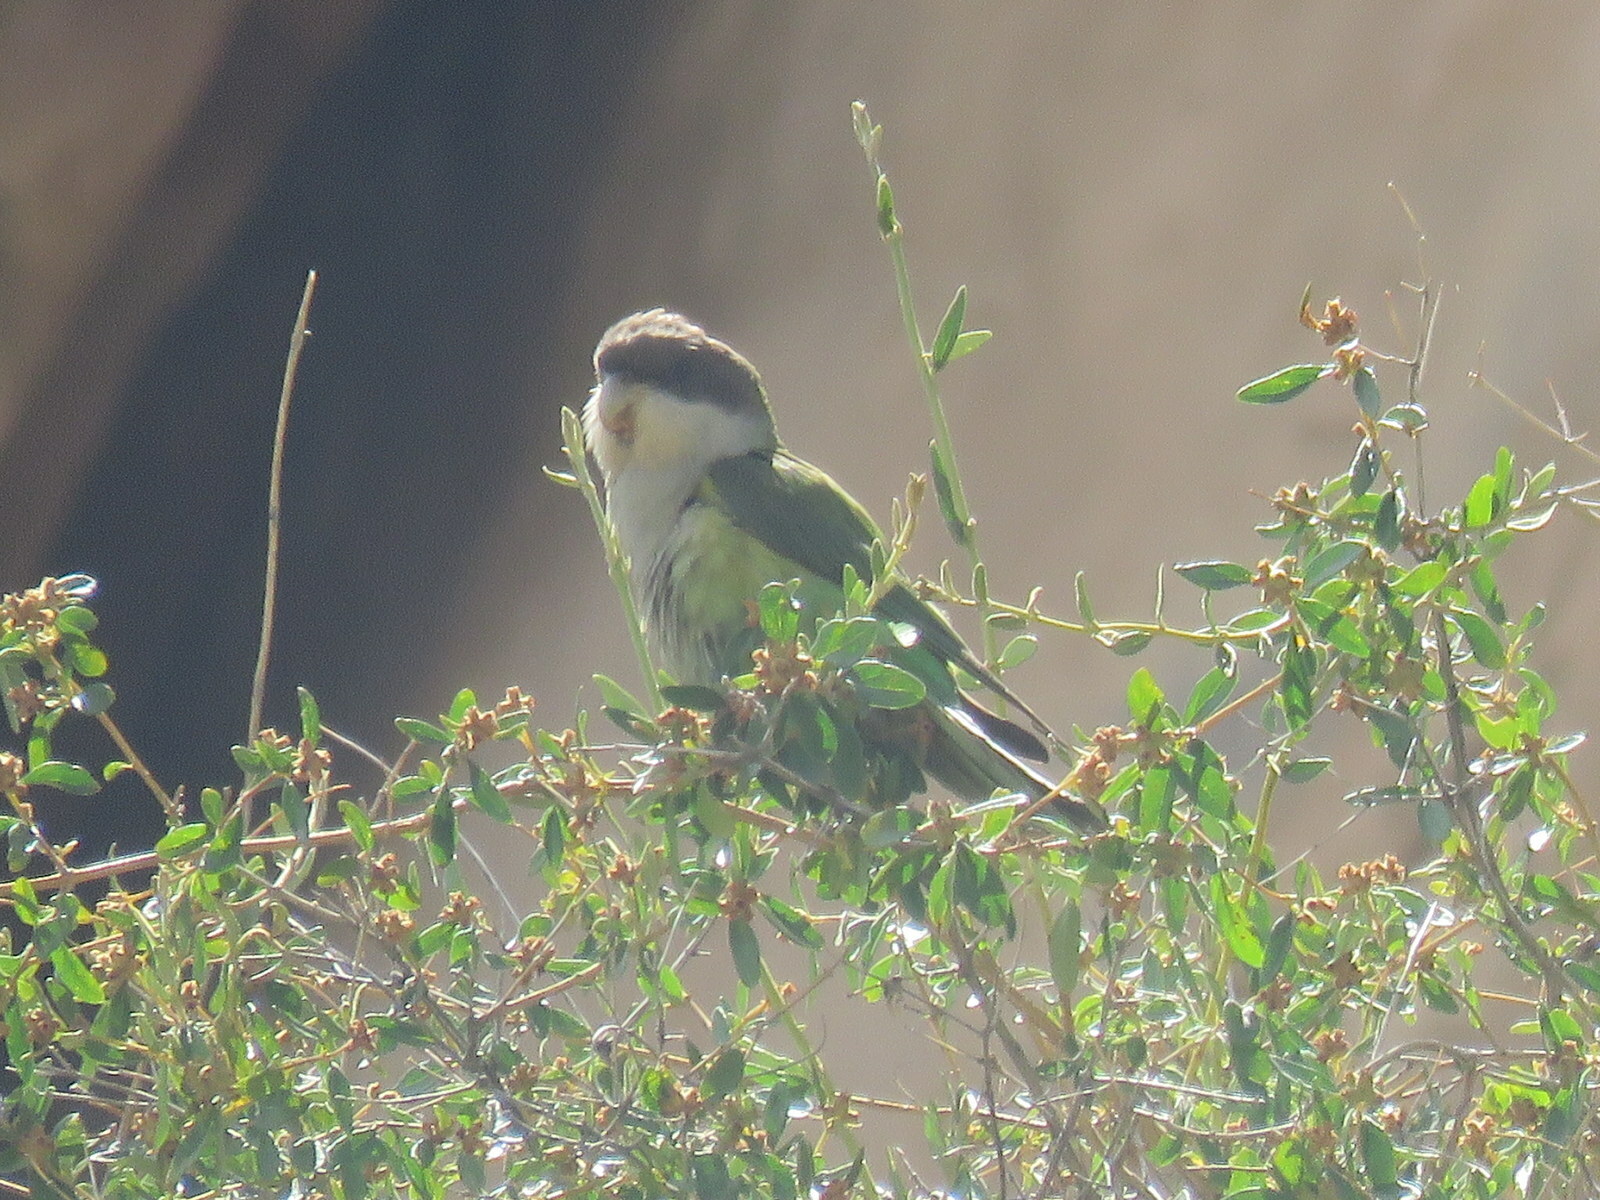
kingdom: Animalia
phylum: Chordata
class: Aves
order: Psittaciformes
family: Psittacidae
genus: Psilopsiagon
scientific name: Psilopsiagon aymara
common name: Grey-hooded parakeet
